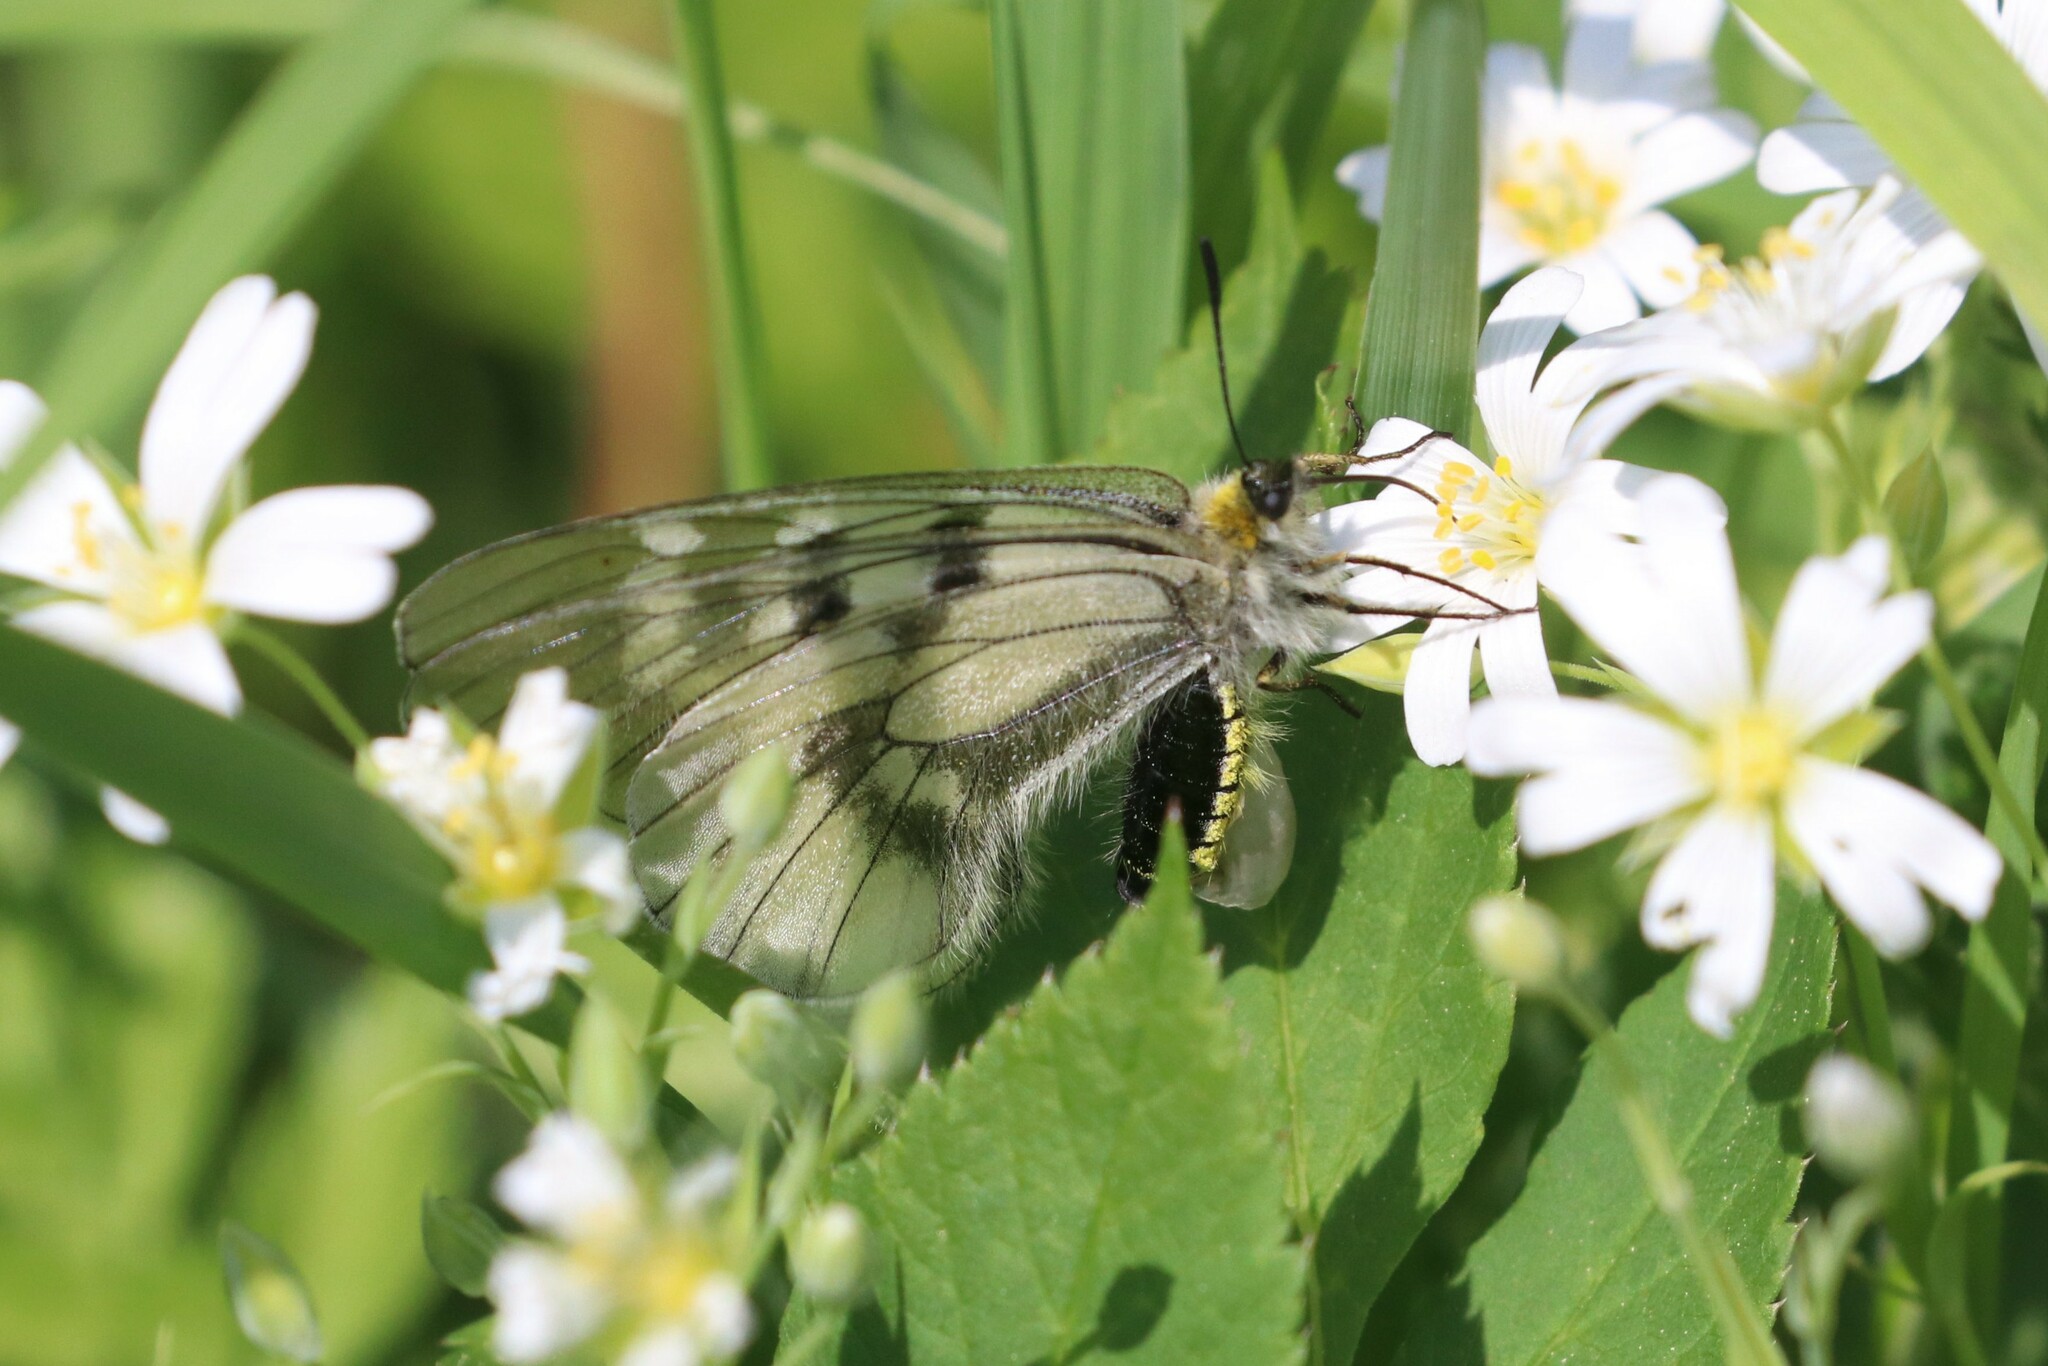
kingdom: Animalia
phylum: Arthropoda
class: Insecta
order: Lepidoptera
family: Papilionidae
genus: Parnassius
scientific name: Parnassius mnemosyne
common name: Clouded apollo
